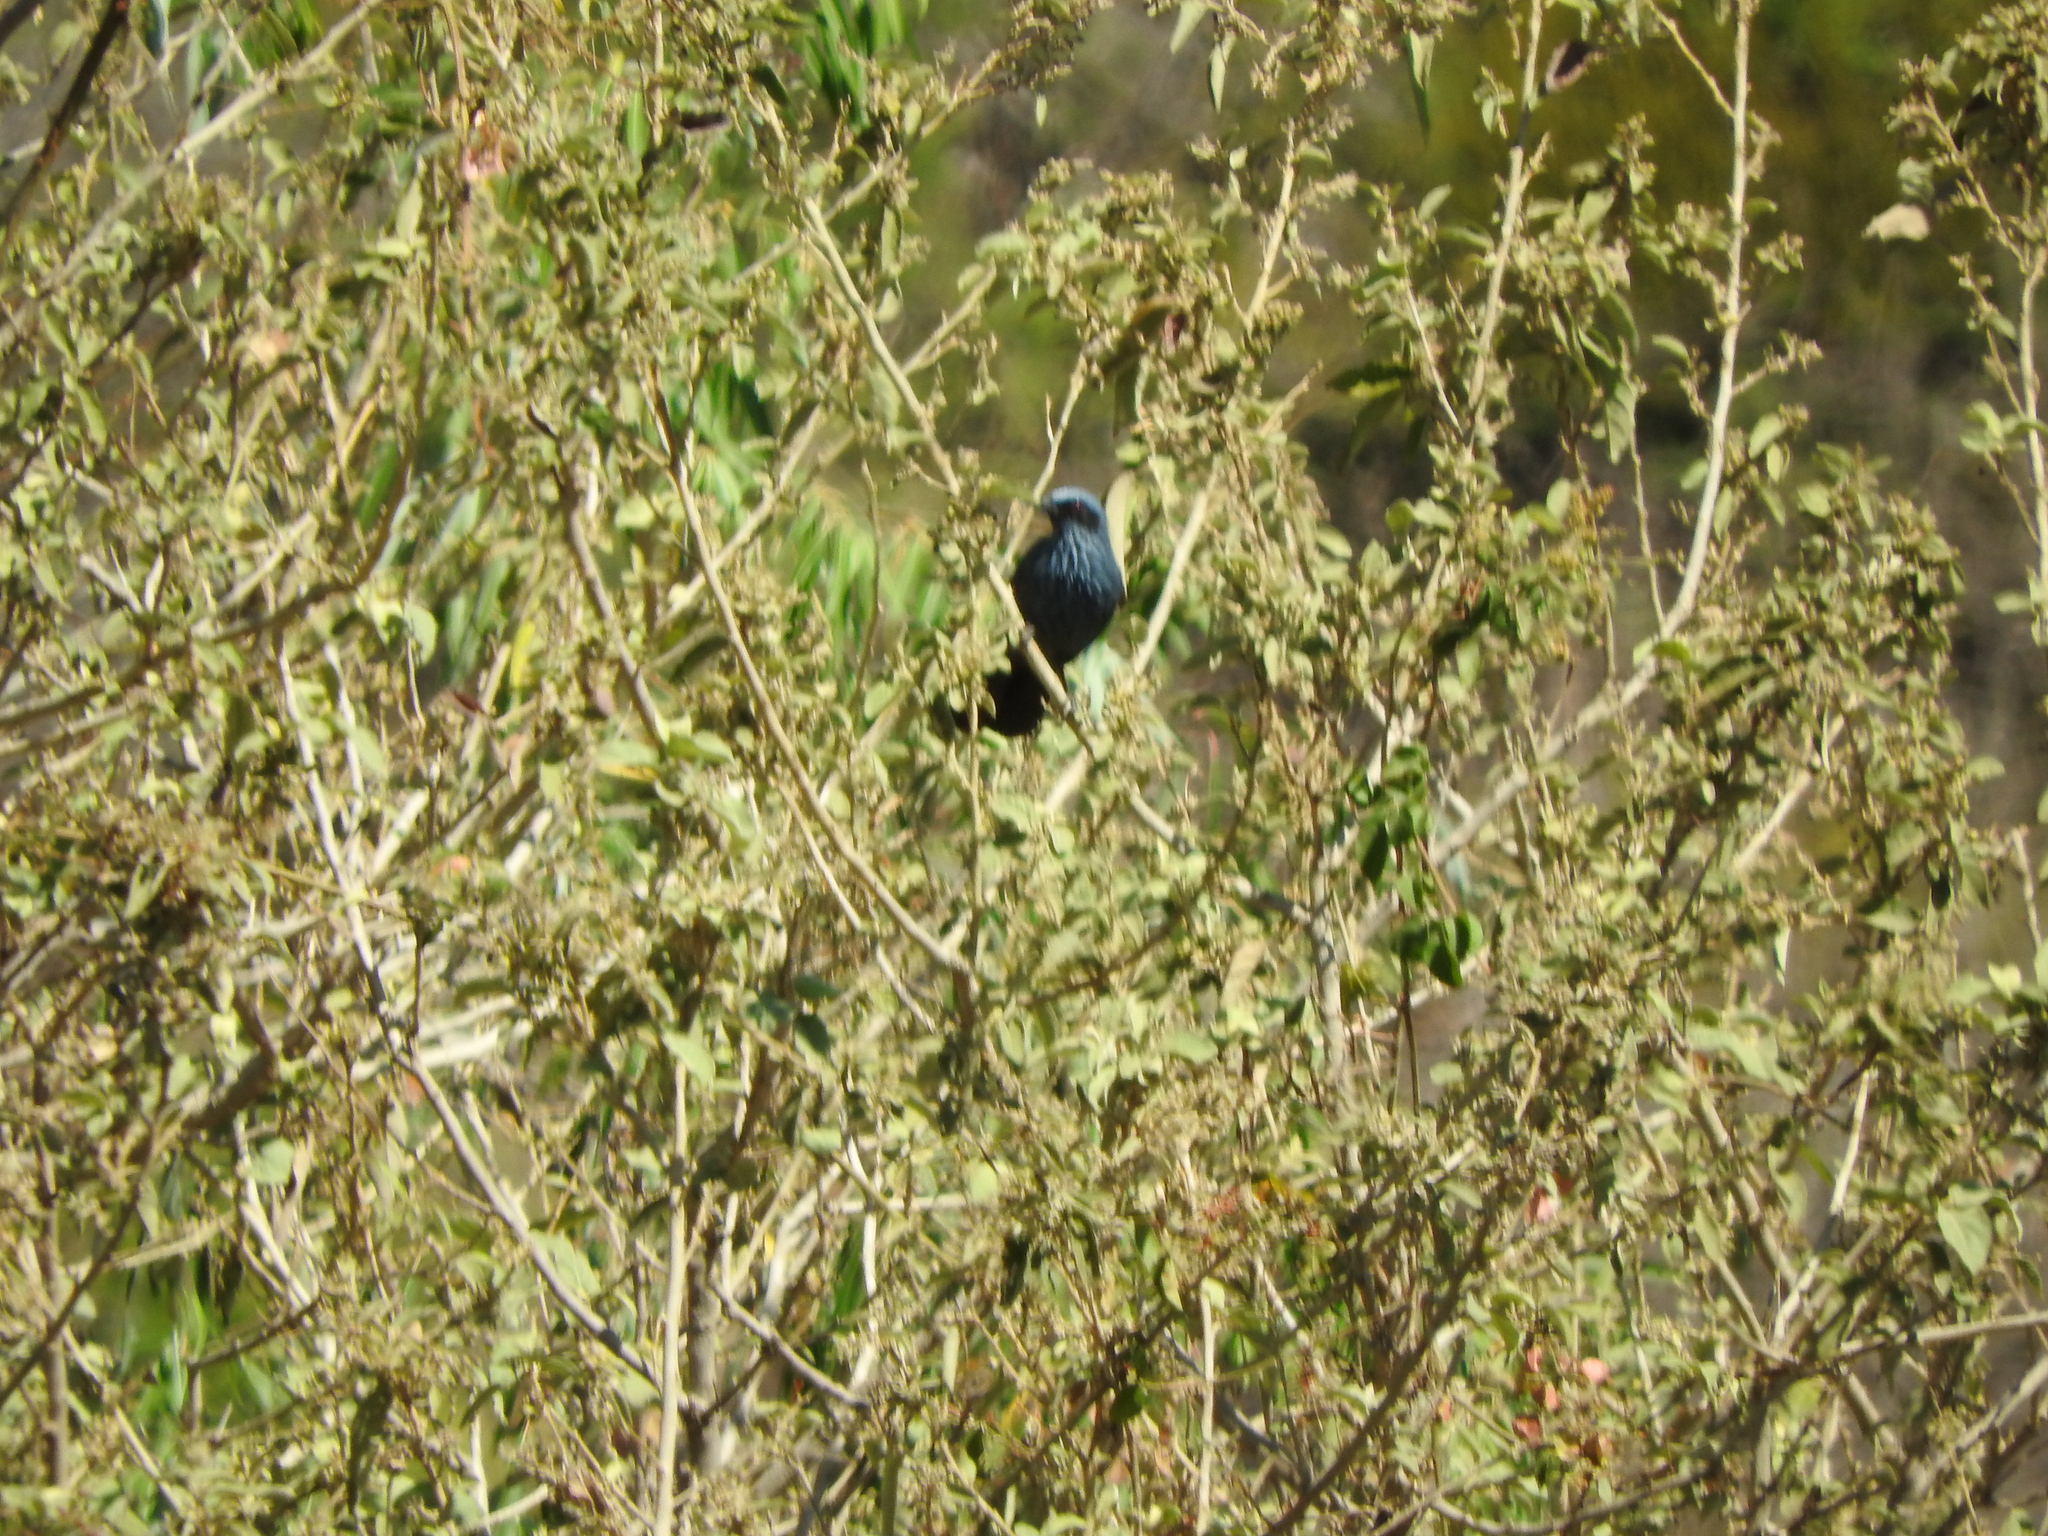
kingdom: Animalia
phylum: Chordata
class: Aves
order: Passeriformes
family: Mimidae
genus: Melanotis
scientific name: Melanotis caerulescens
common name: Blue mockingbird
